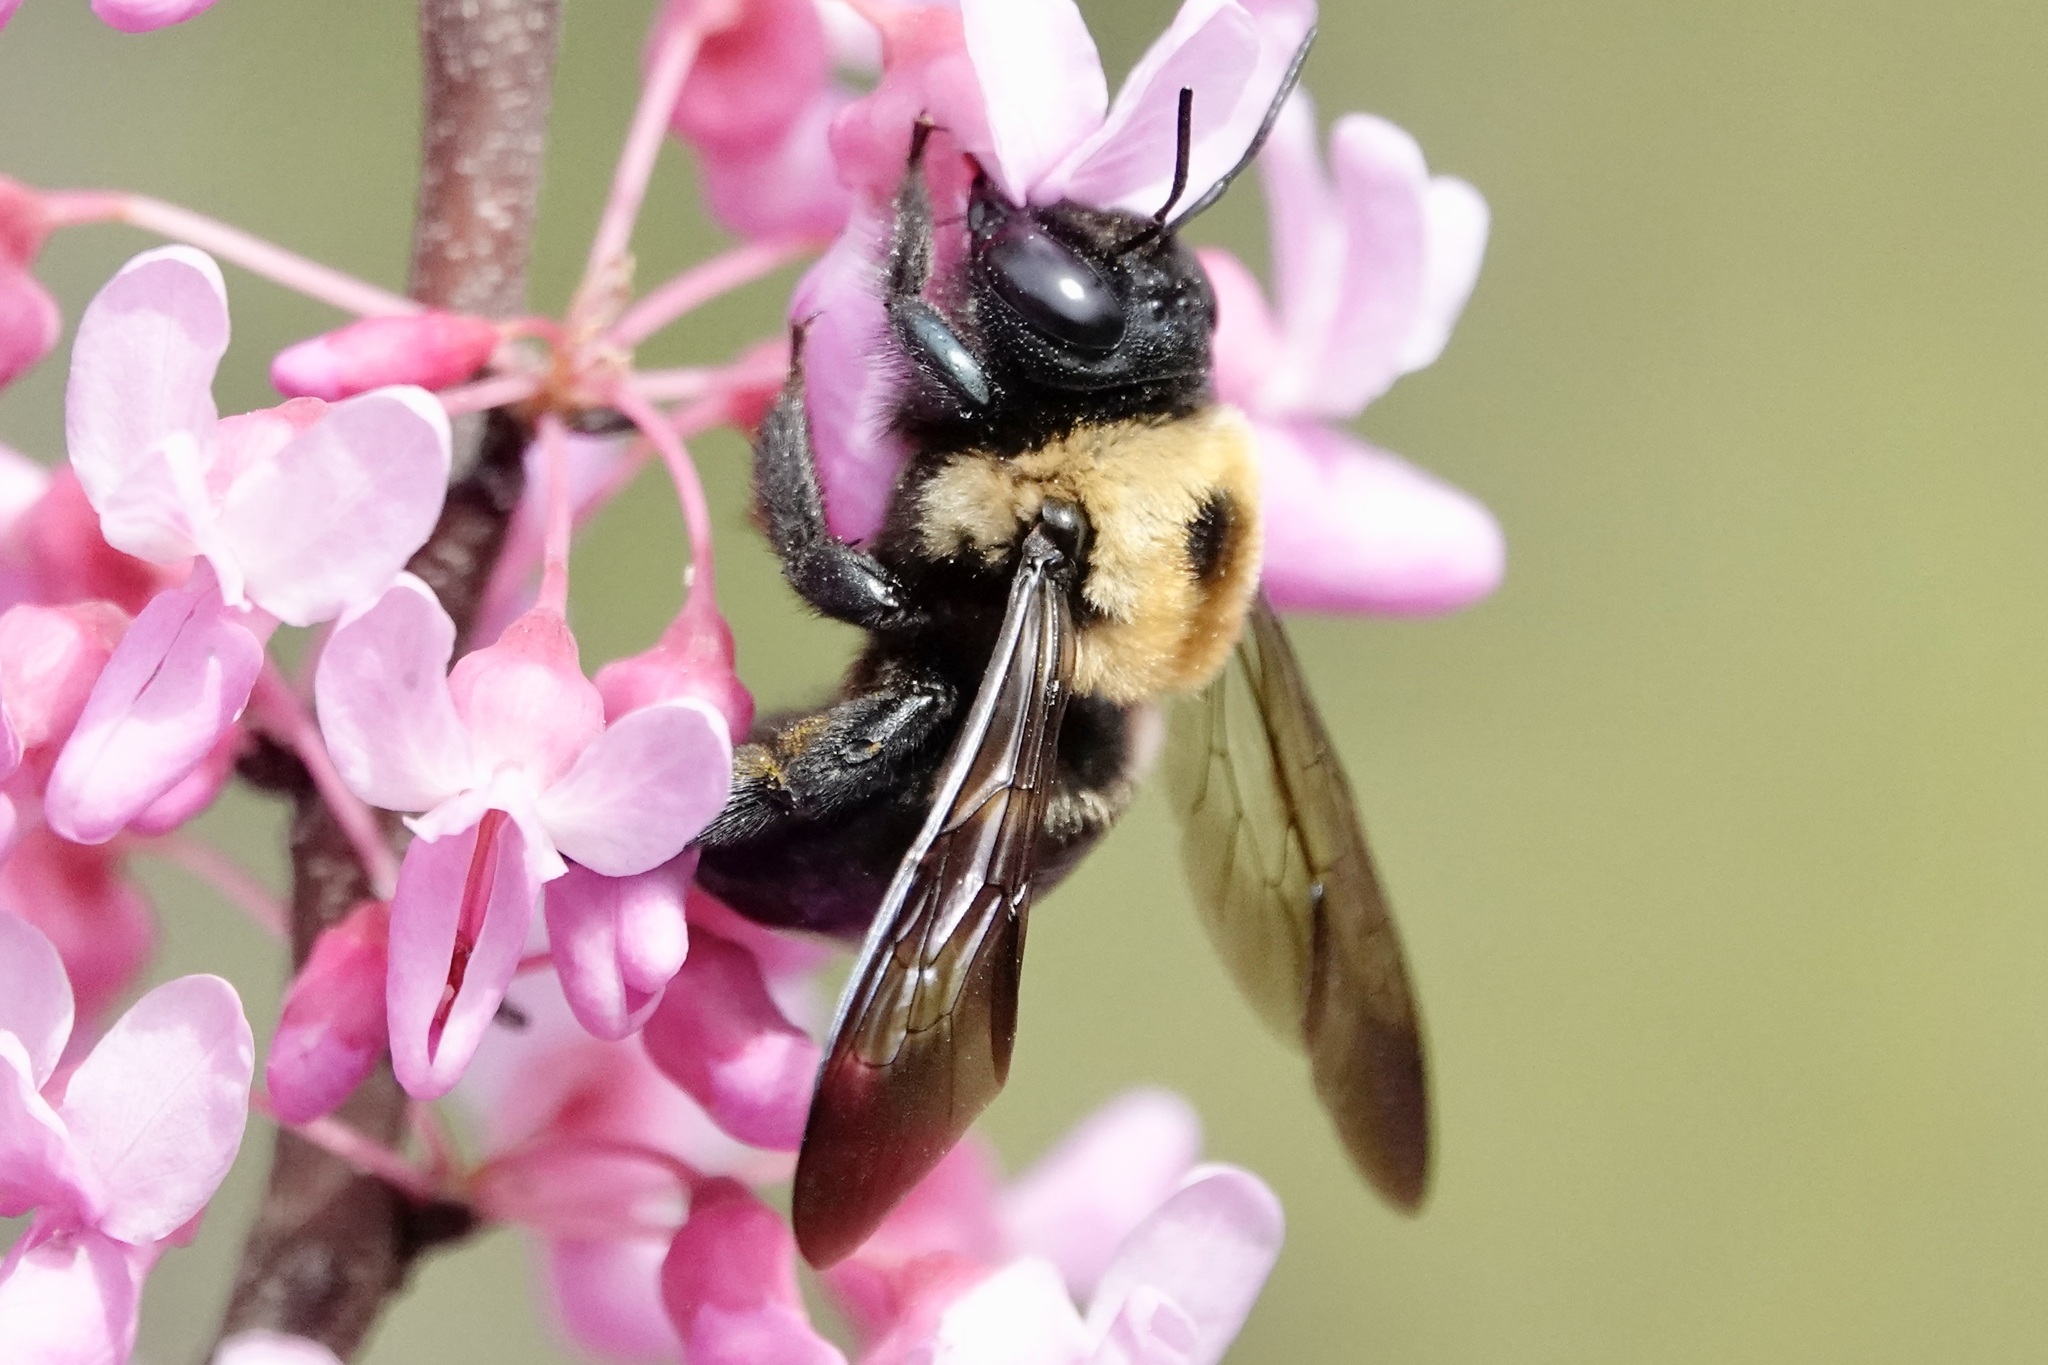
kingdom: Animalia
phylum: Arthropoda
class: Insecta
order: Hymenoptera
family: Apidae
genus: Xylocopa
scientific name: Xylocopa virginica
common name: Carpenter bee
